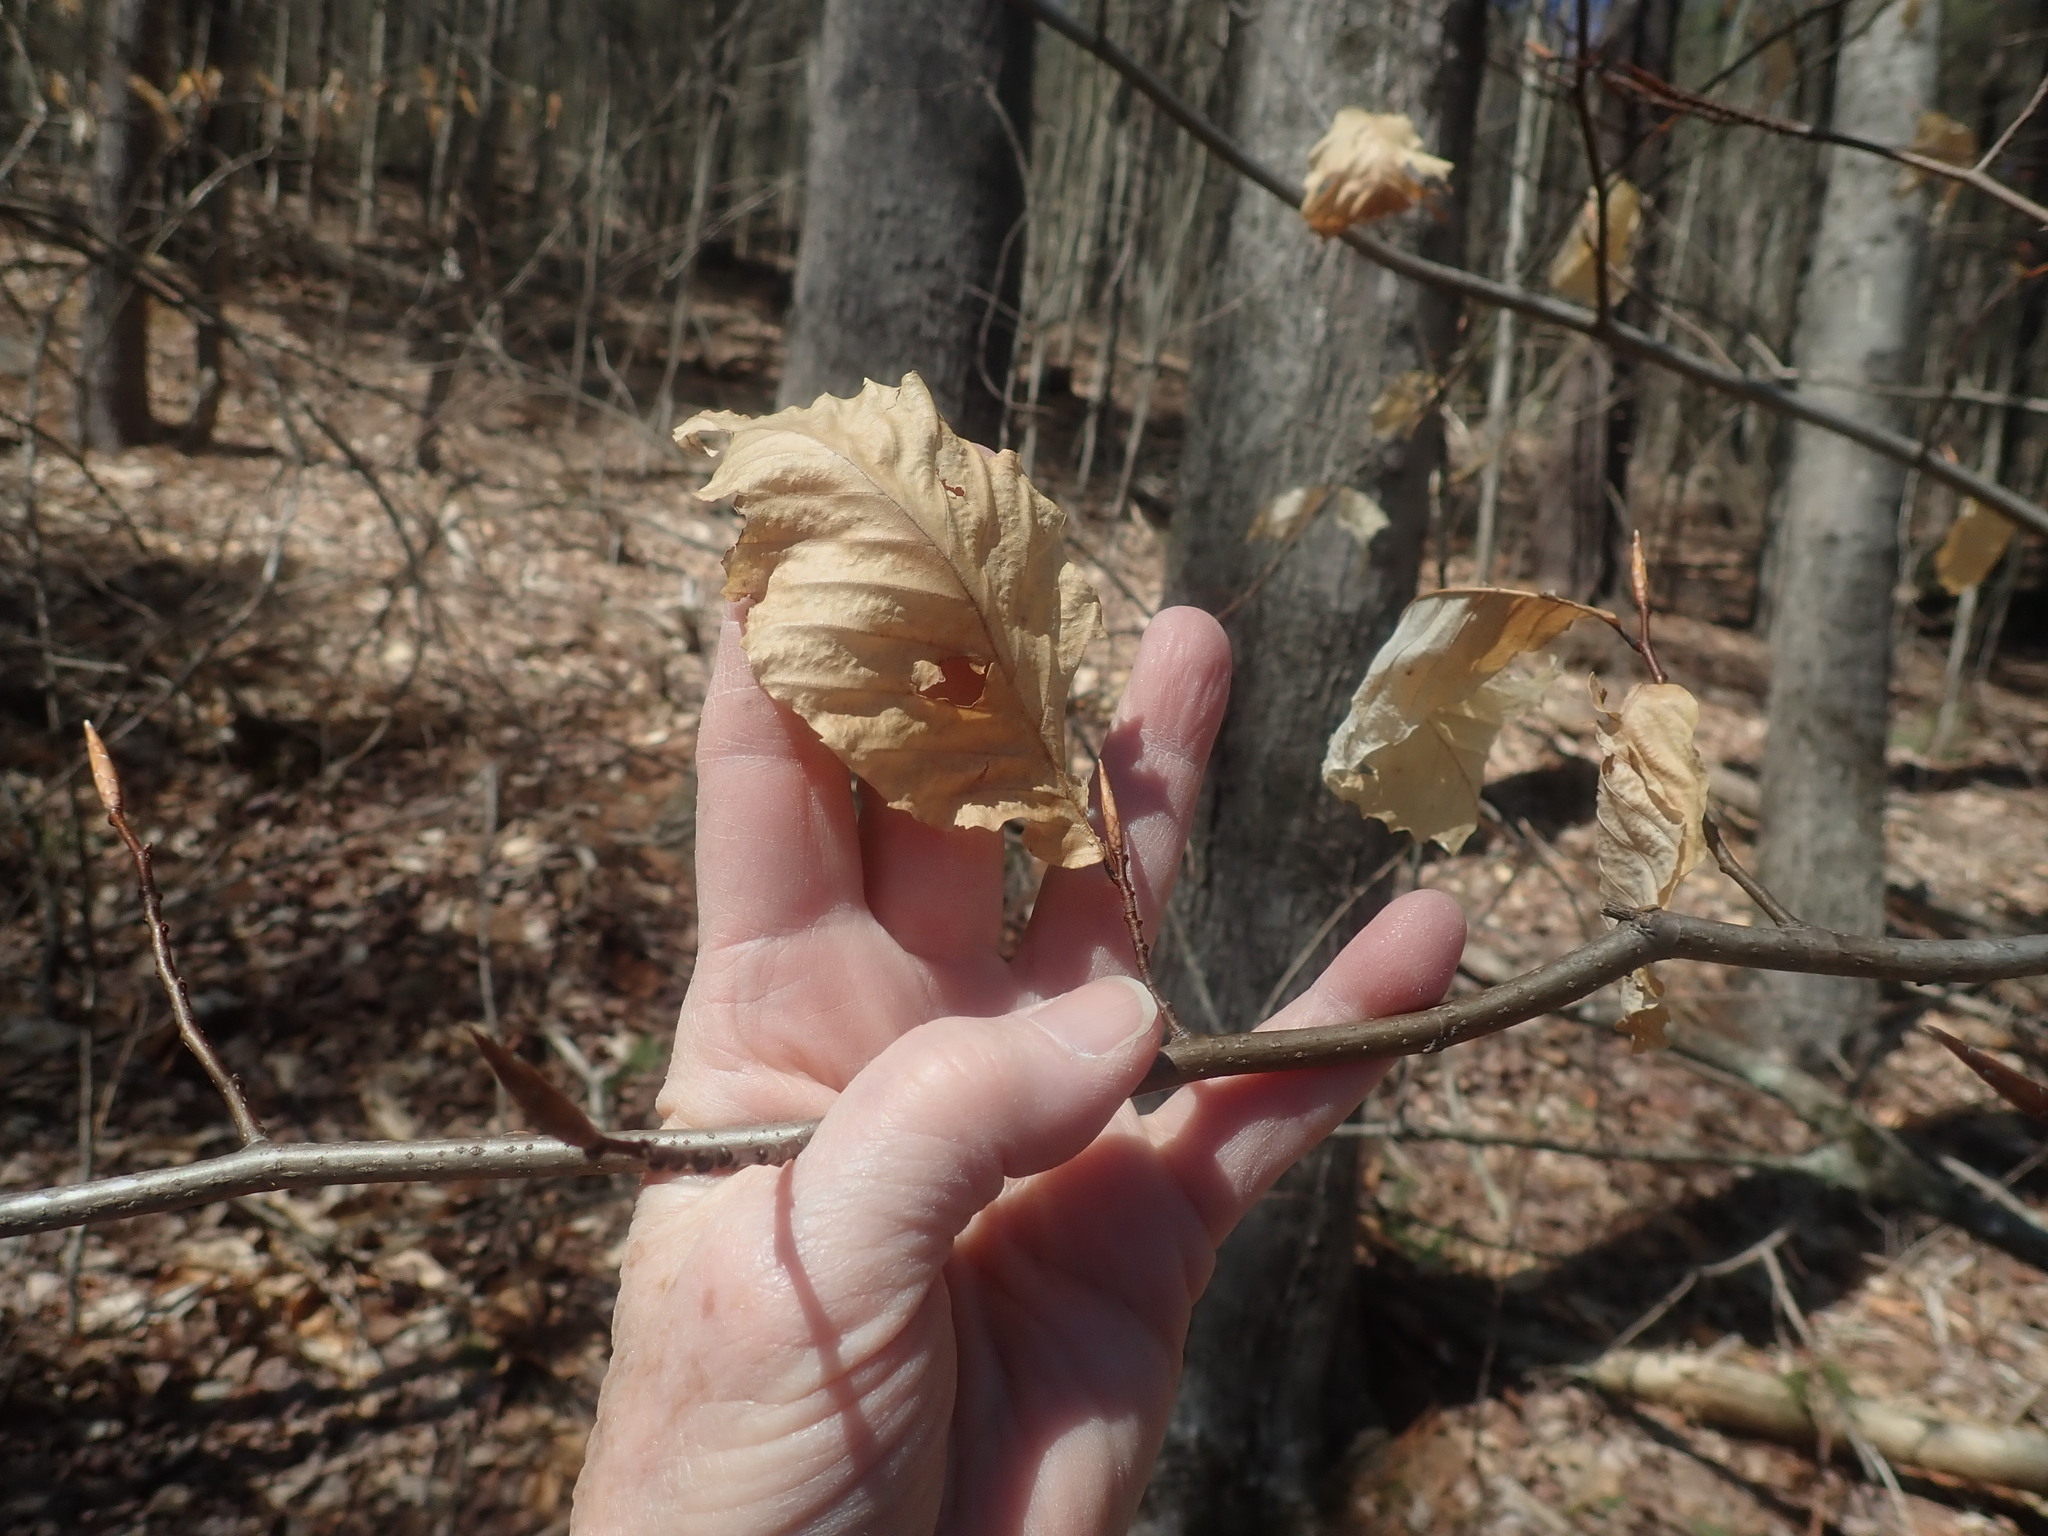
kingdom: Plantae
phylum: Tracheophyta
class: Magnoliopsida
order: Fagales
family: Fagaceae
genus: Fagus
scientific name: Fagus grandifolia
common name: American beech
